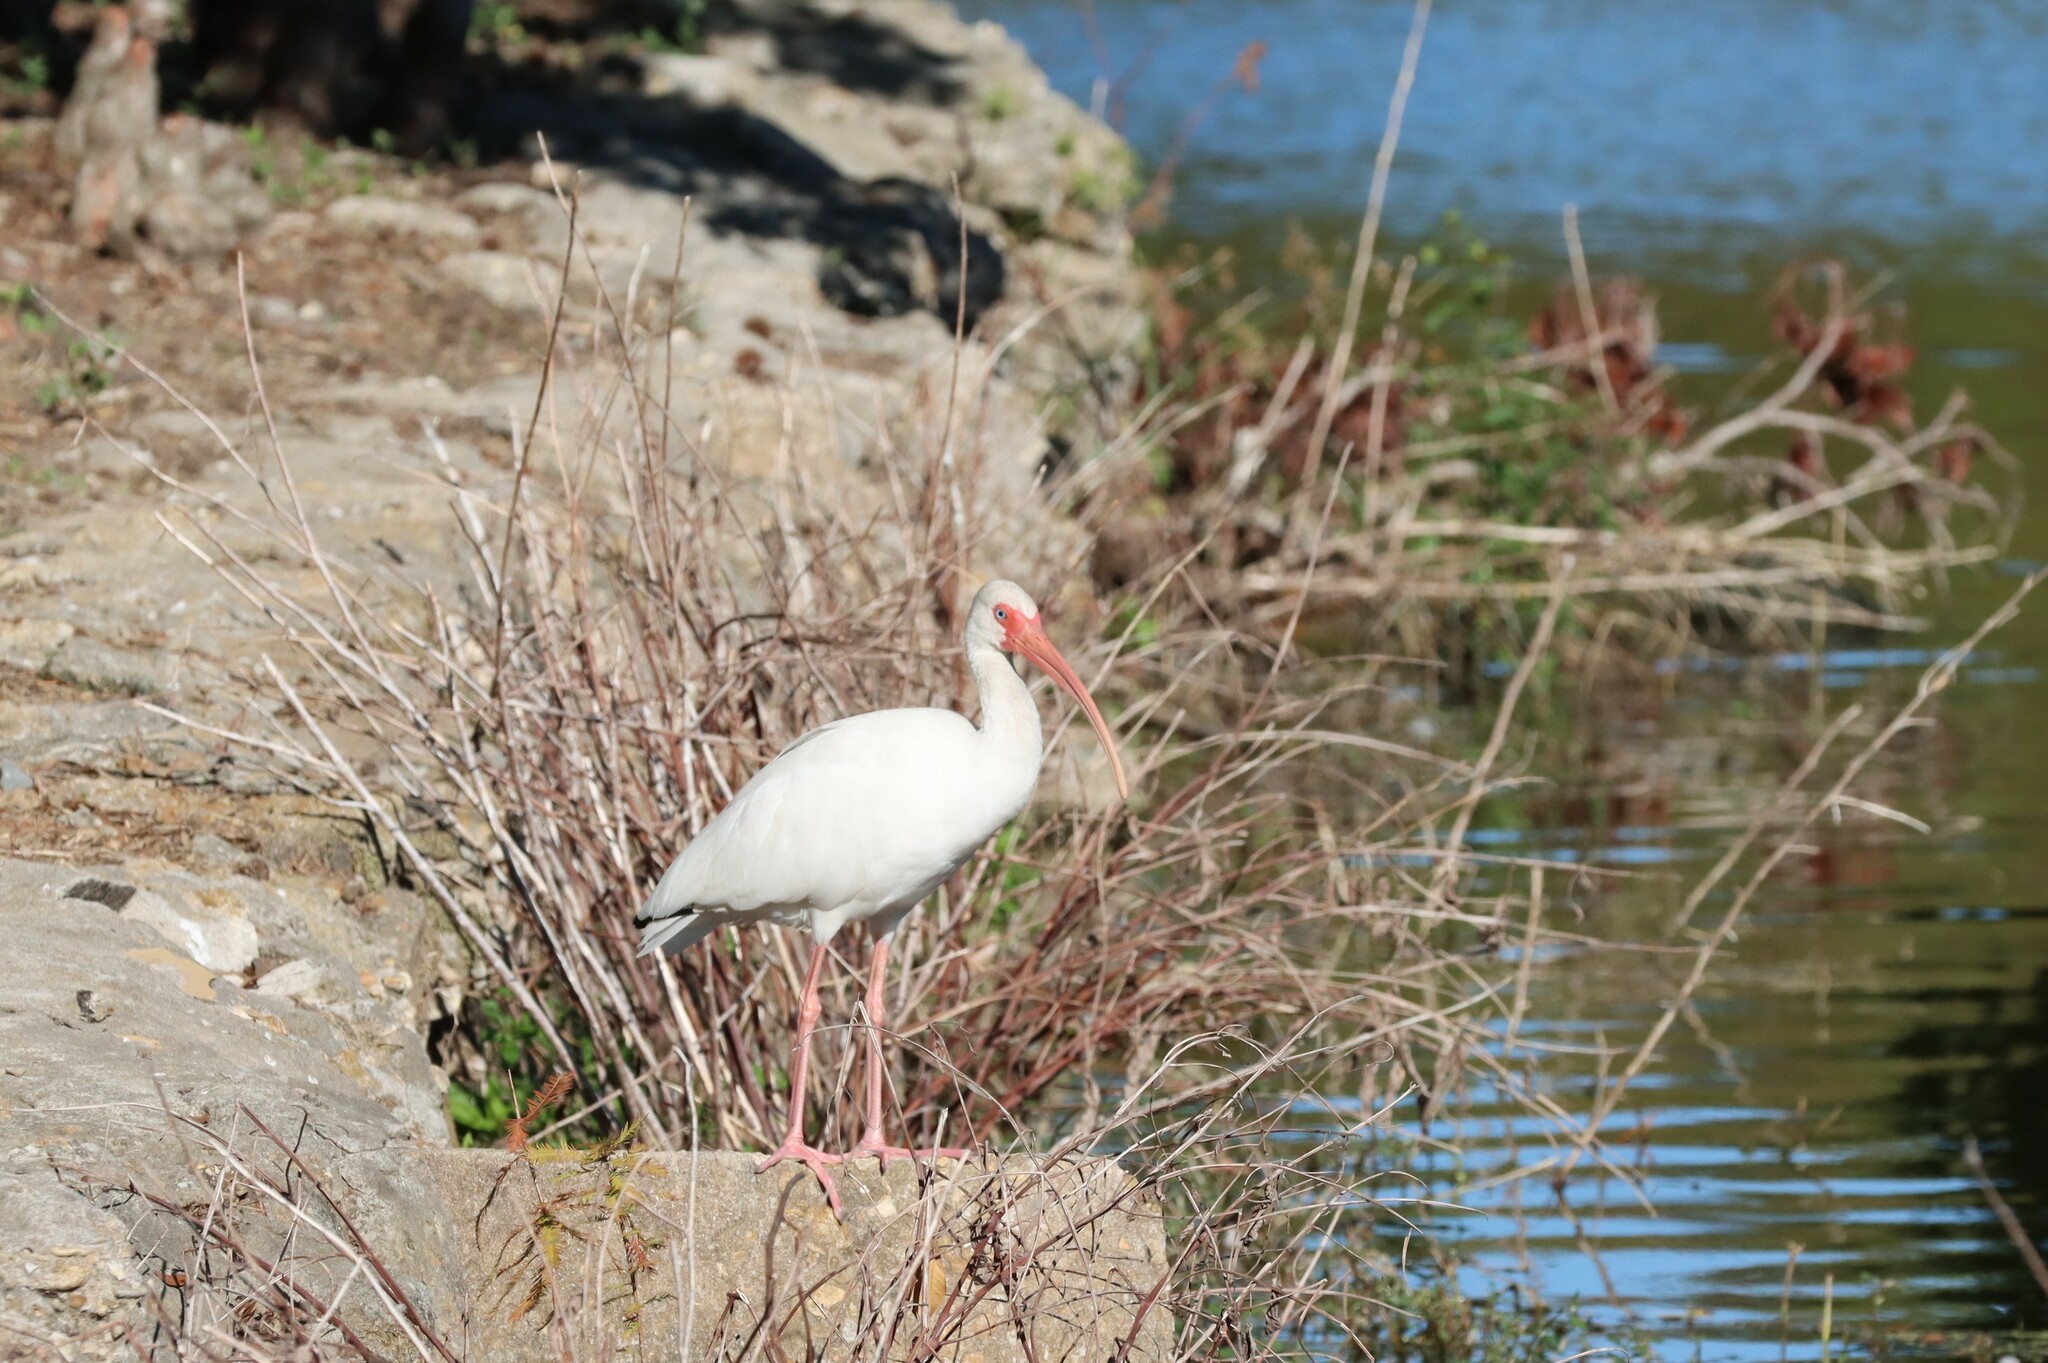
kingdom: Animalia
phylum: Chordata
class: Aves
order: Pelecaniformes
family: Threskiornithidae
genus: Eudocimus
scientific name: Eudocimus albus
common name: White ibis
